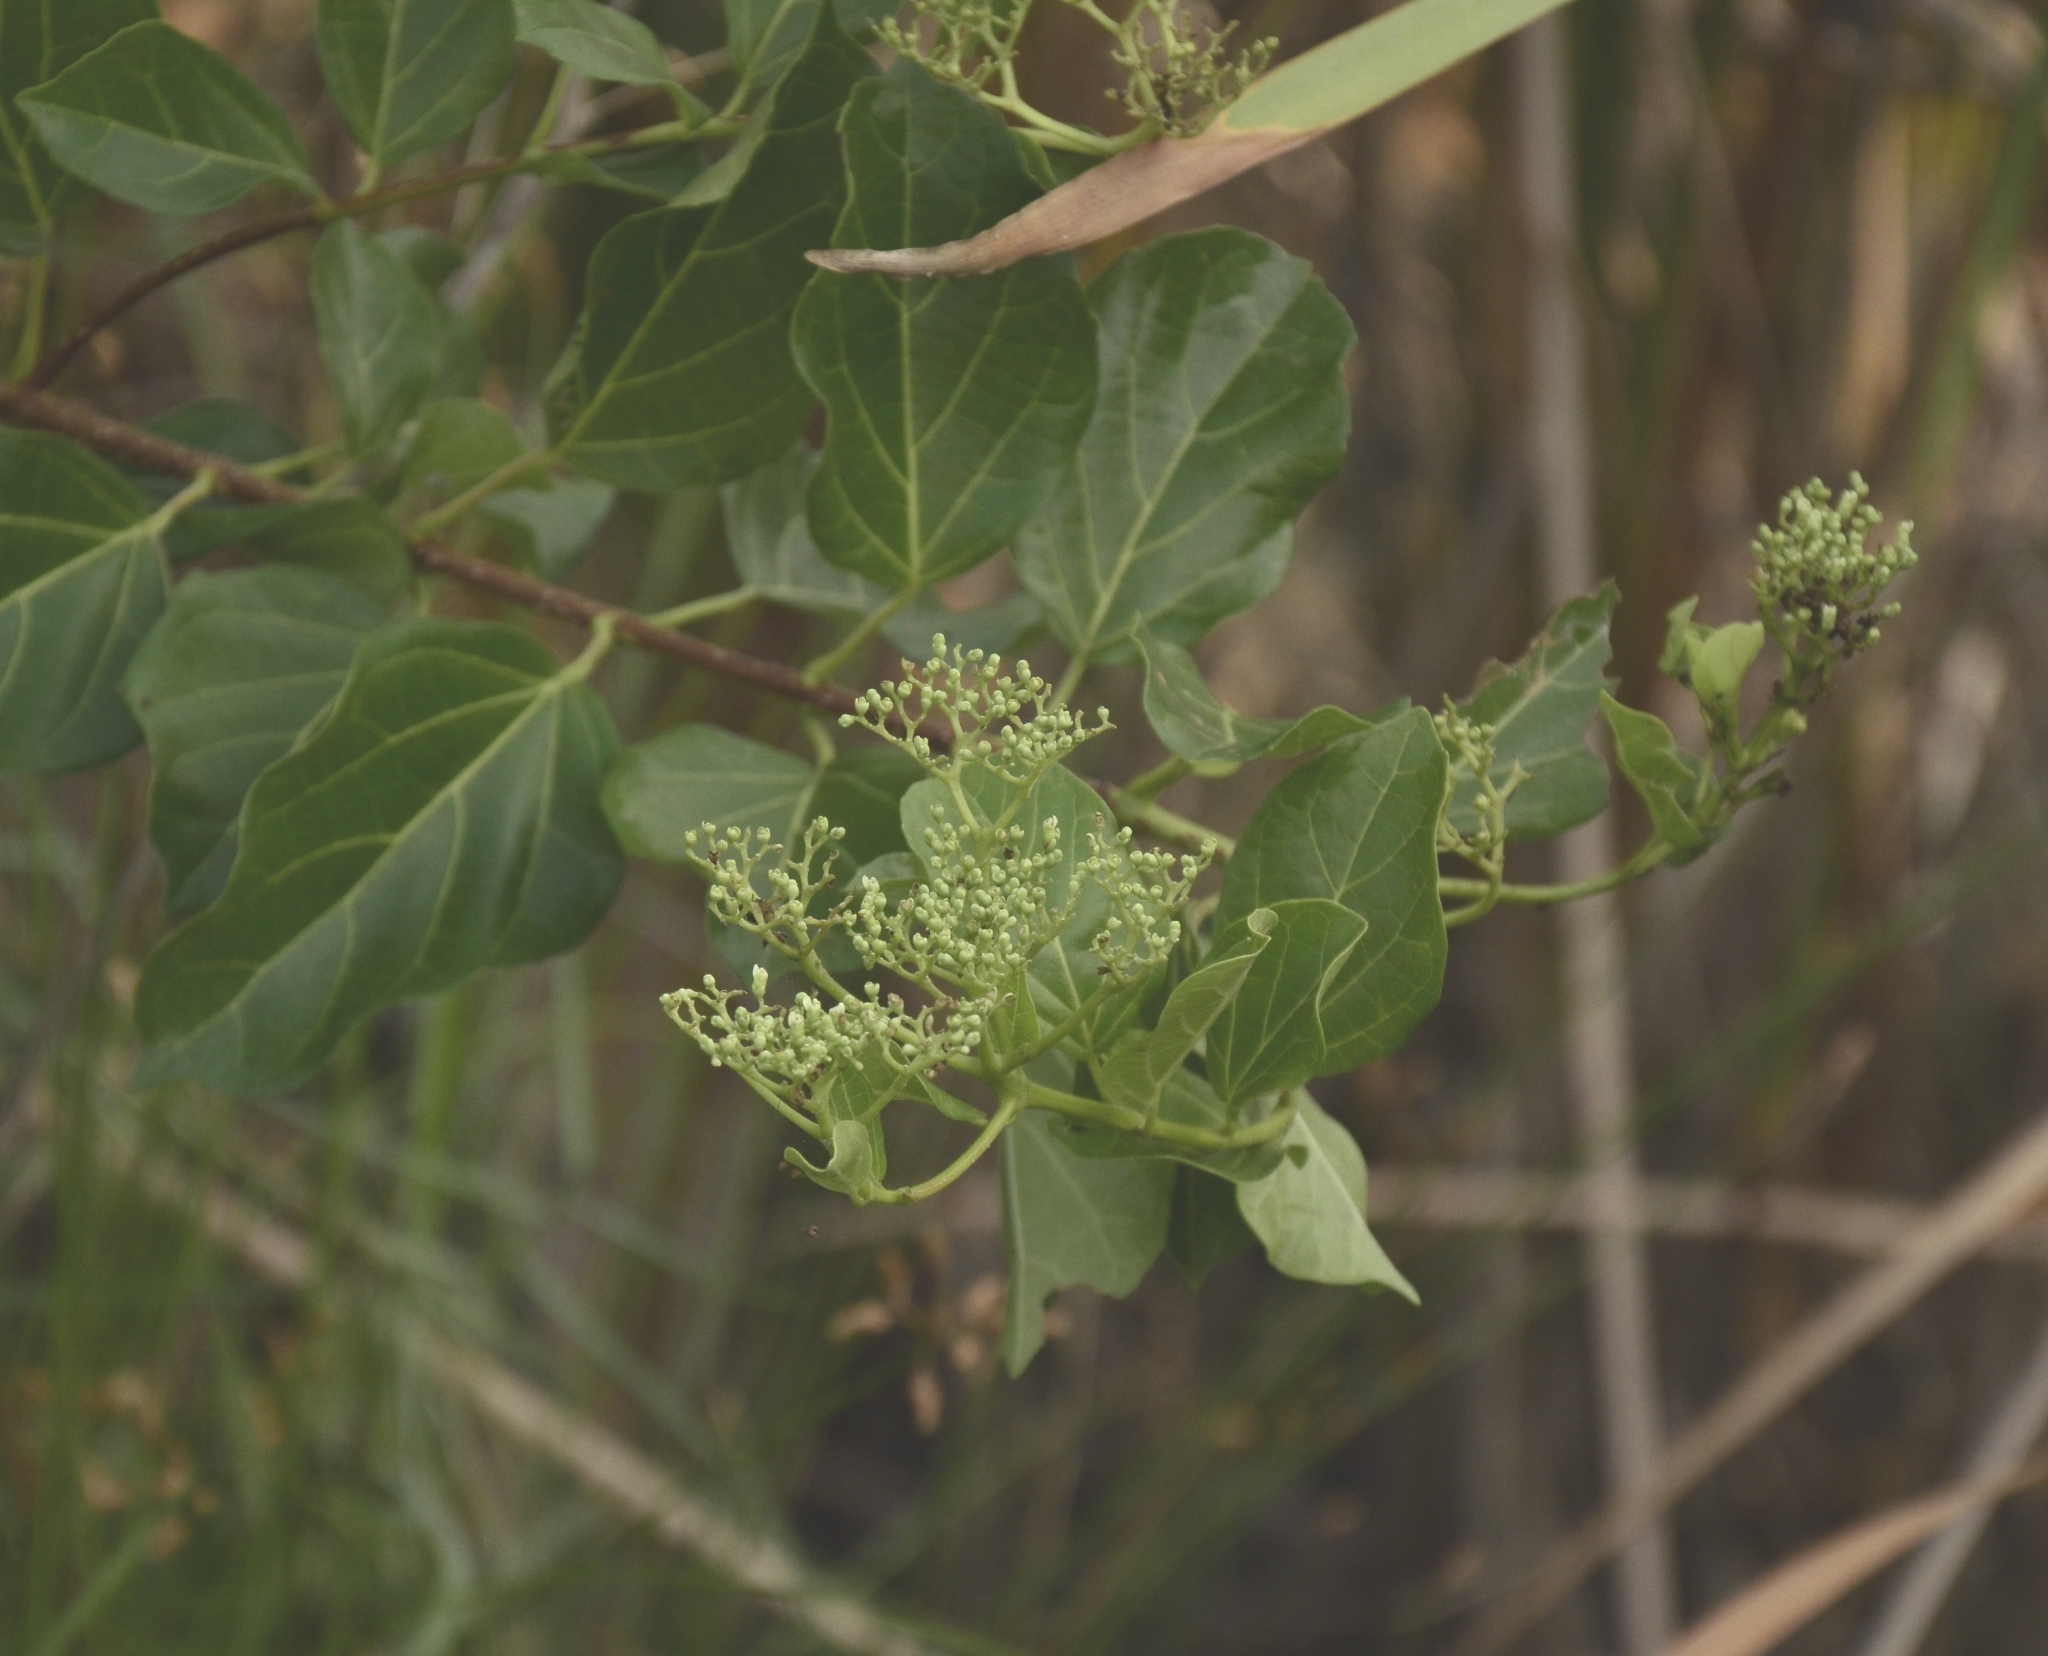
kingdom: Plantae
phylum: Tracheophyta
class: Magnoliopsida
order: Lamiales
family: Lamiaceae
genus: Premna
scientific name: Premna serratifolia
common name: Bastard guelder
